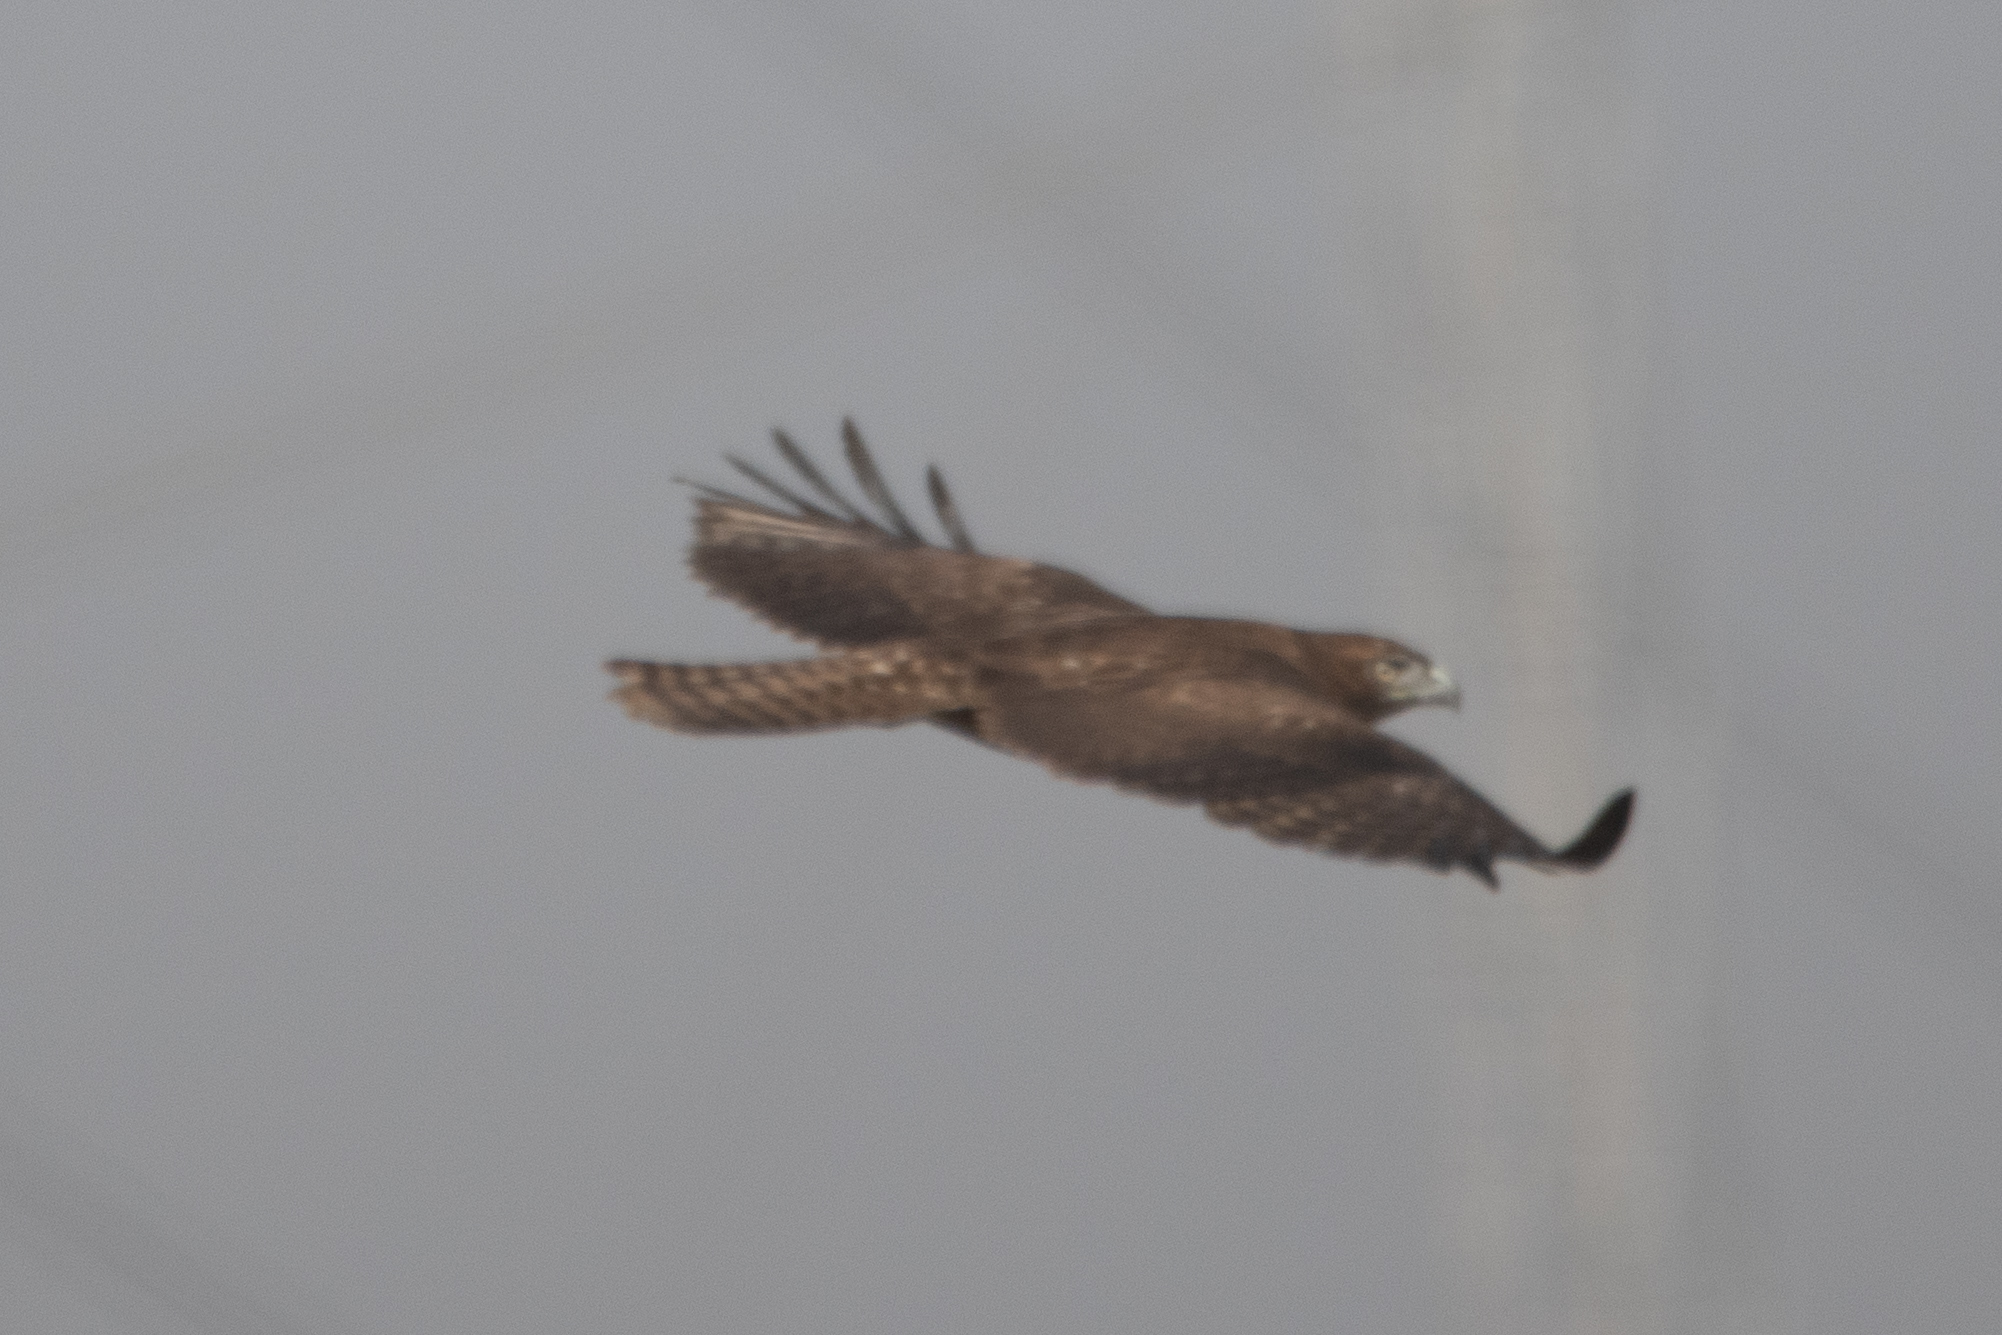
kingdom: Animalia
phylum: Chordata
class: Aves
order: Accipitriformes
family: Accipitridae
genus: Buteo
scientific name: Buteo jamaicensis
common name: Red-tailed hawk
